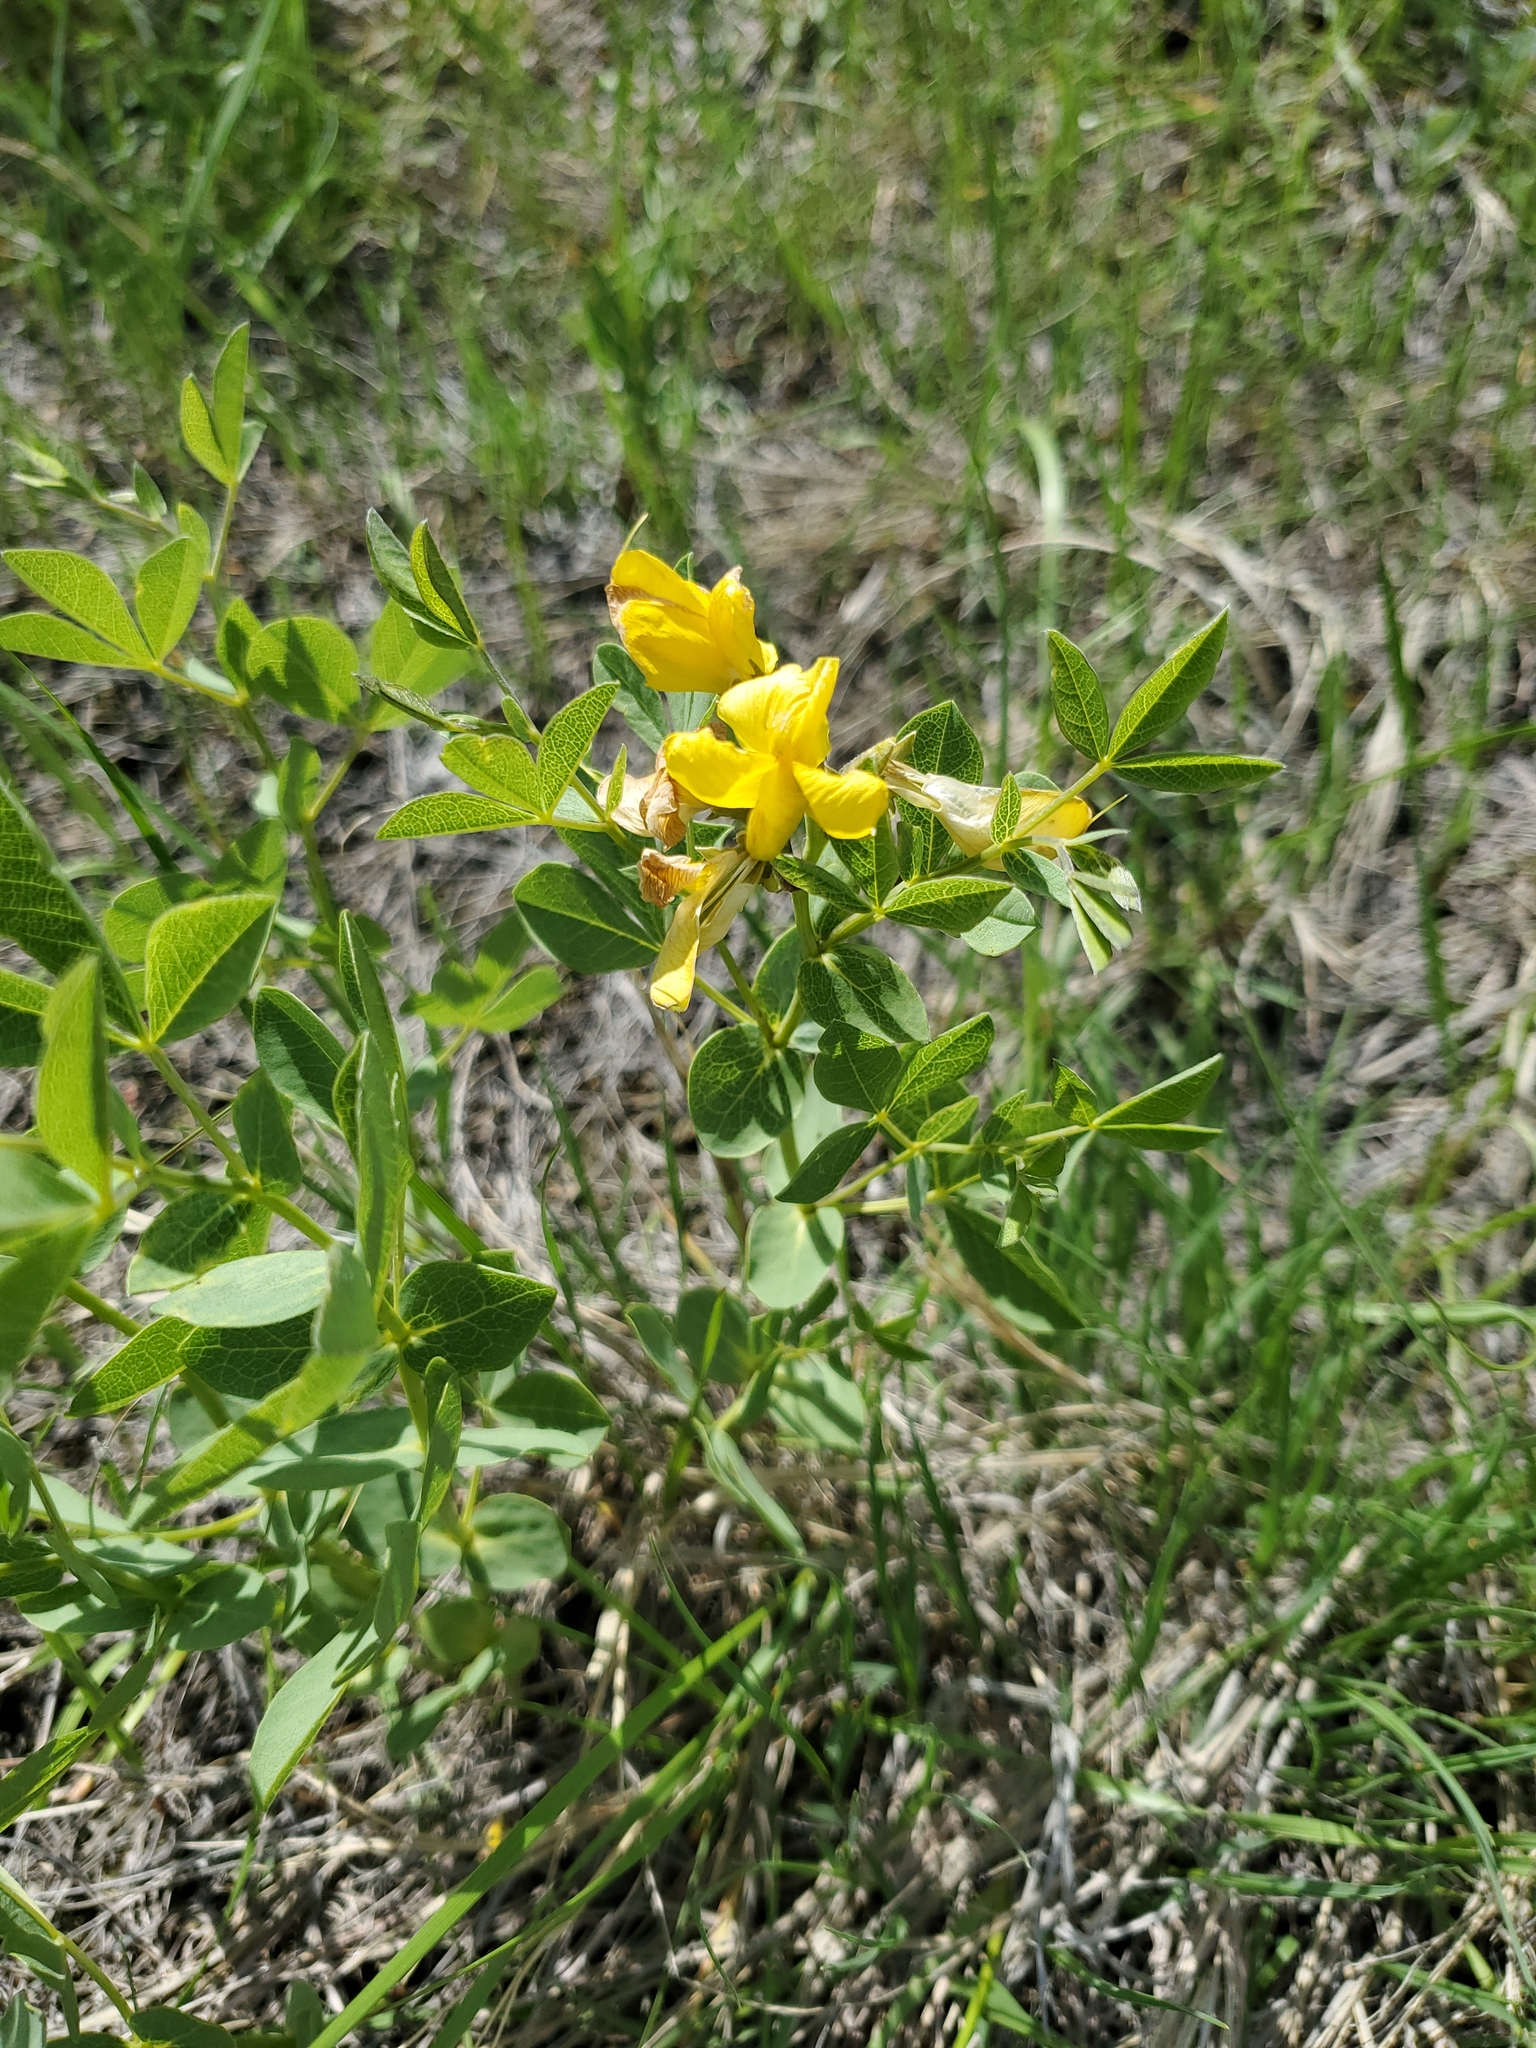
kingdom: Plantae
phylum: Tracheophyta
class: Magnoliopsida
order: Fabales
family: Fabaceae
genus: Thermopsis
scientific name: Thermopsis rhombifolia
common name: Circle-pod-pea
